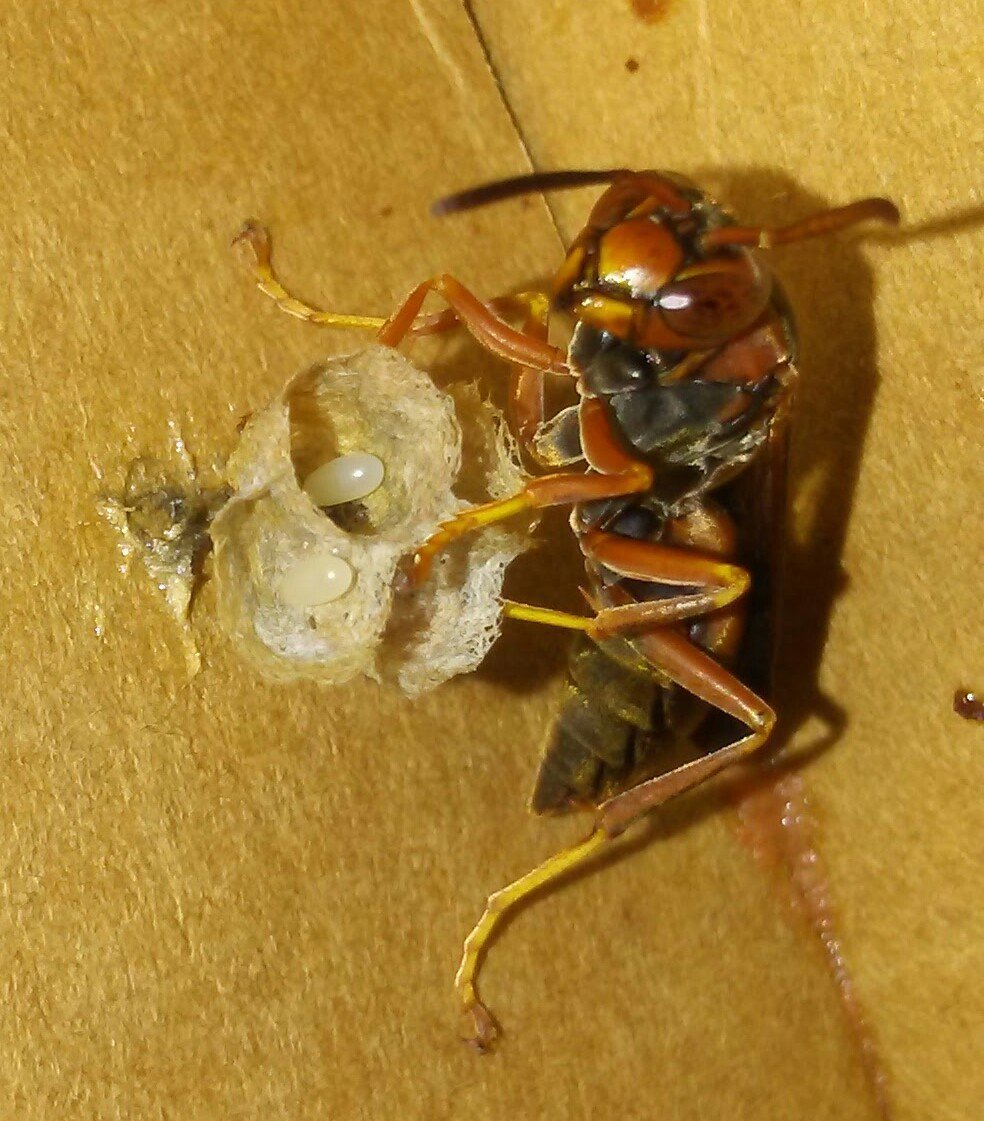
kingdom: Animalia
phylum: Arthropoda
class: Insecta
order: Hymenoptera
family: Eumenidae
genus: Polistes
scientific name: Polistes fuscatus
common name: Dark paper wasp
